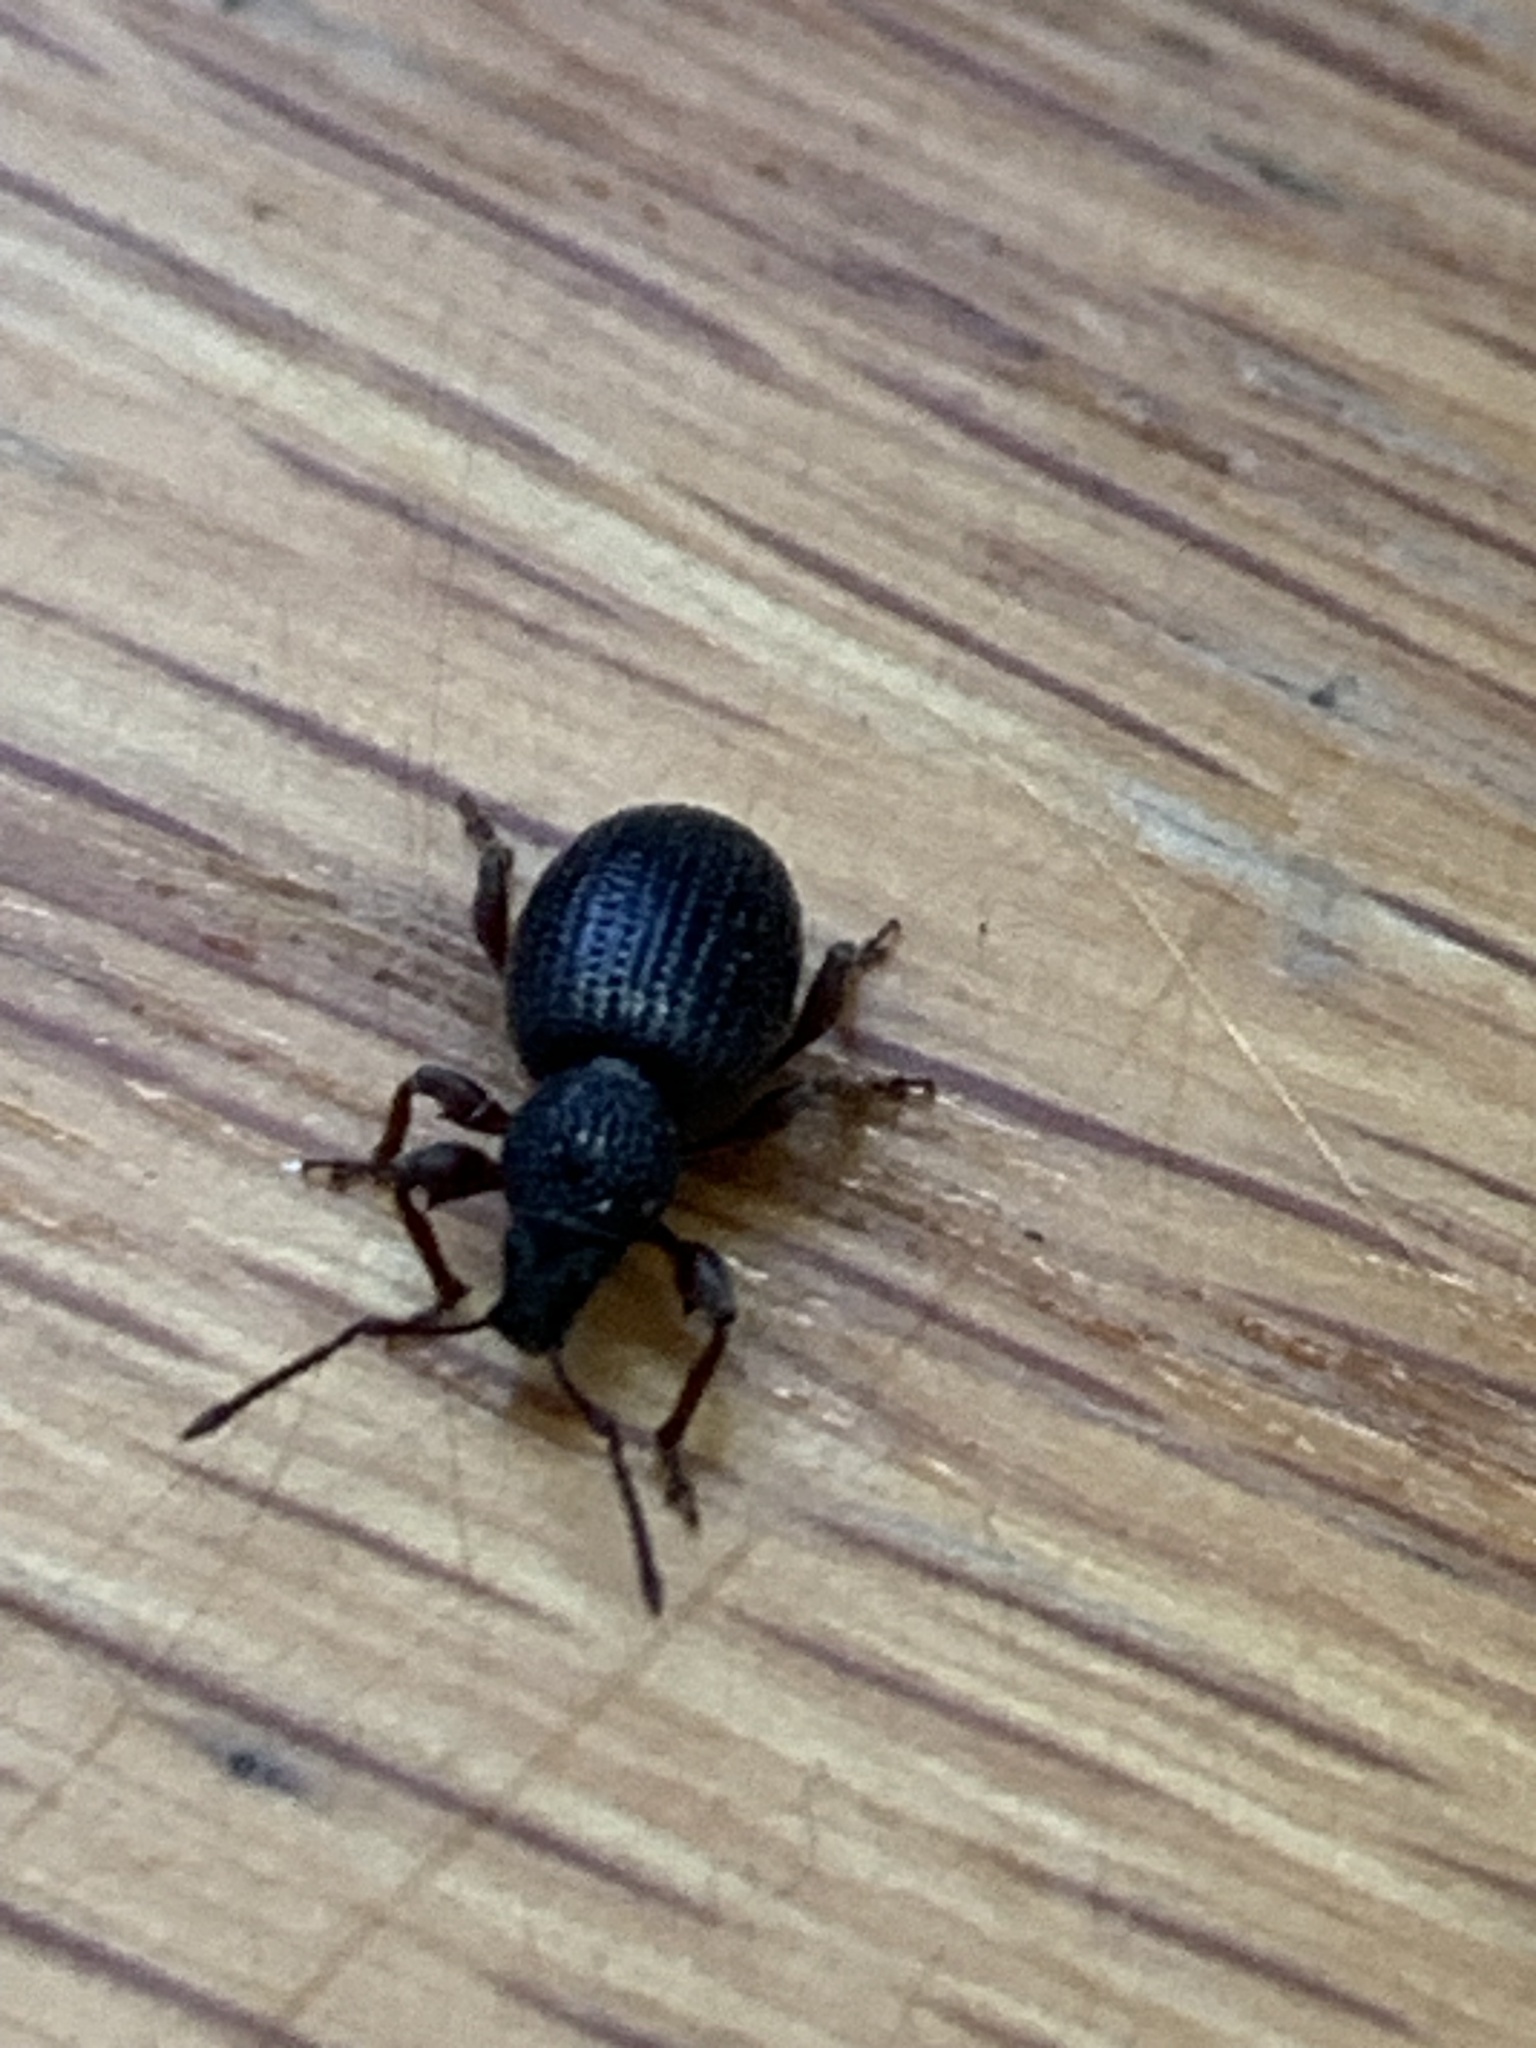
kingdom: Animalia
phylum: Arthropoda
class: Insecta
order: Coleoptera
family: Curculionidae
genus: Otiorhynchus
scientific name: Otiorhynchus ovatus
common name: Strawberry root weevil
